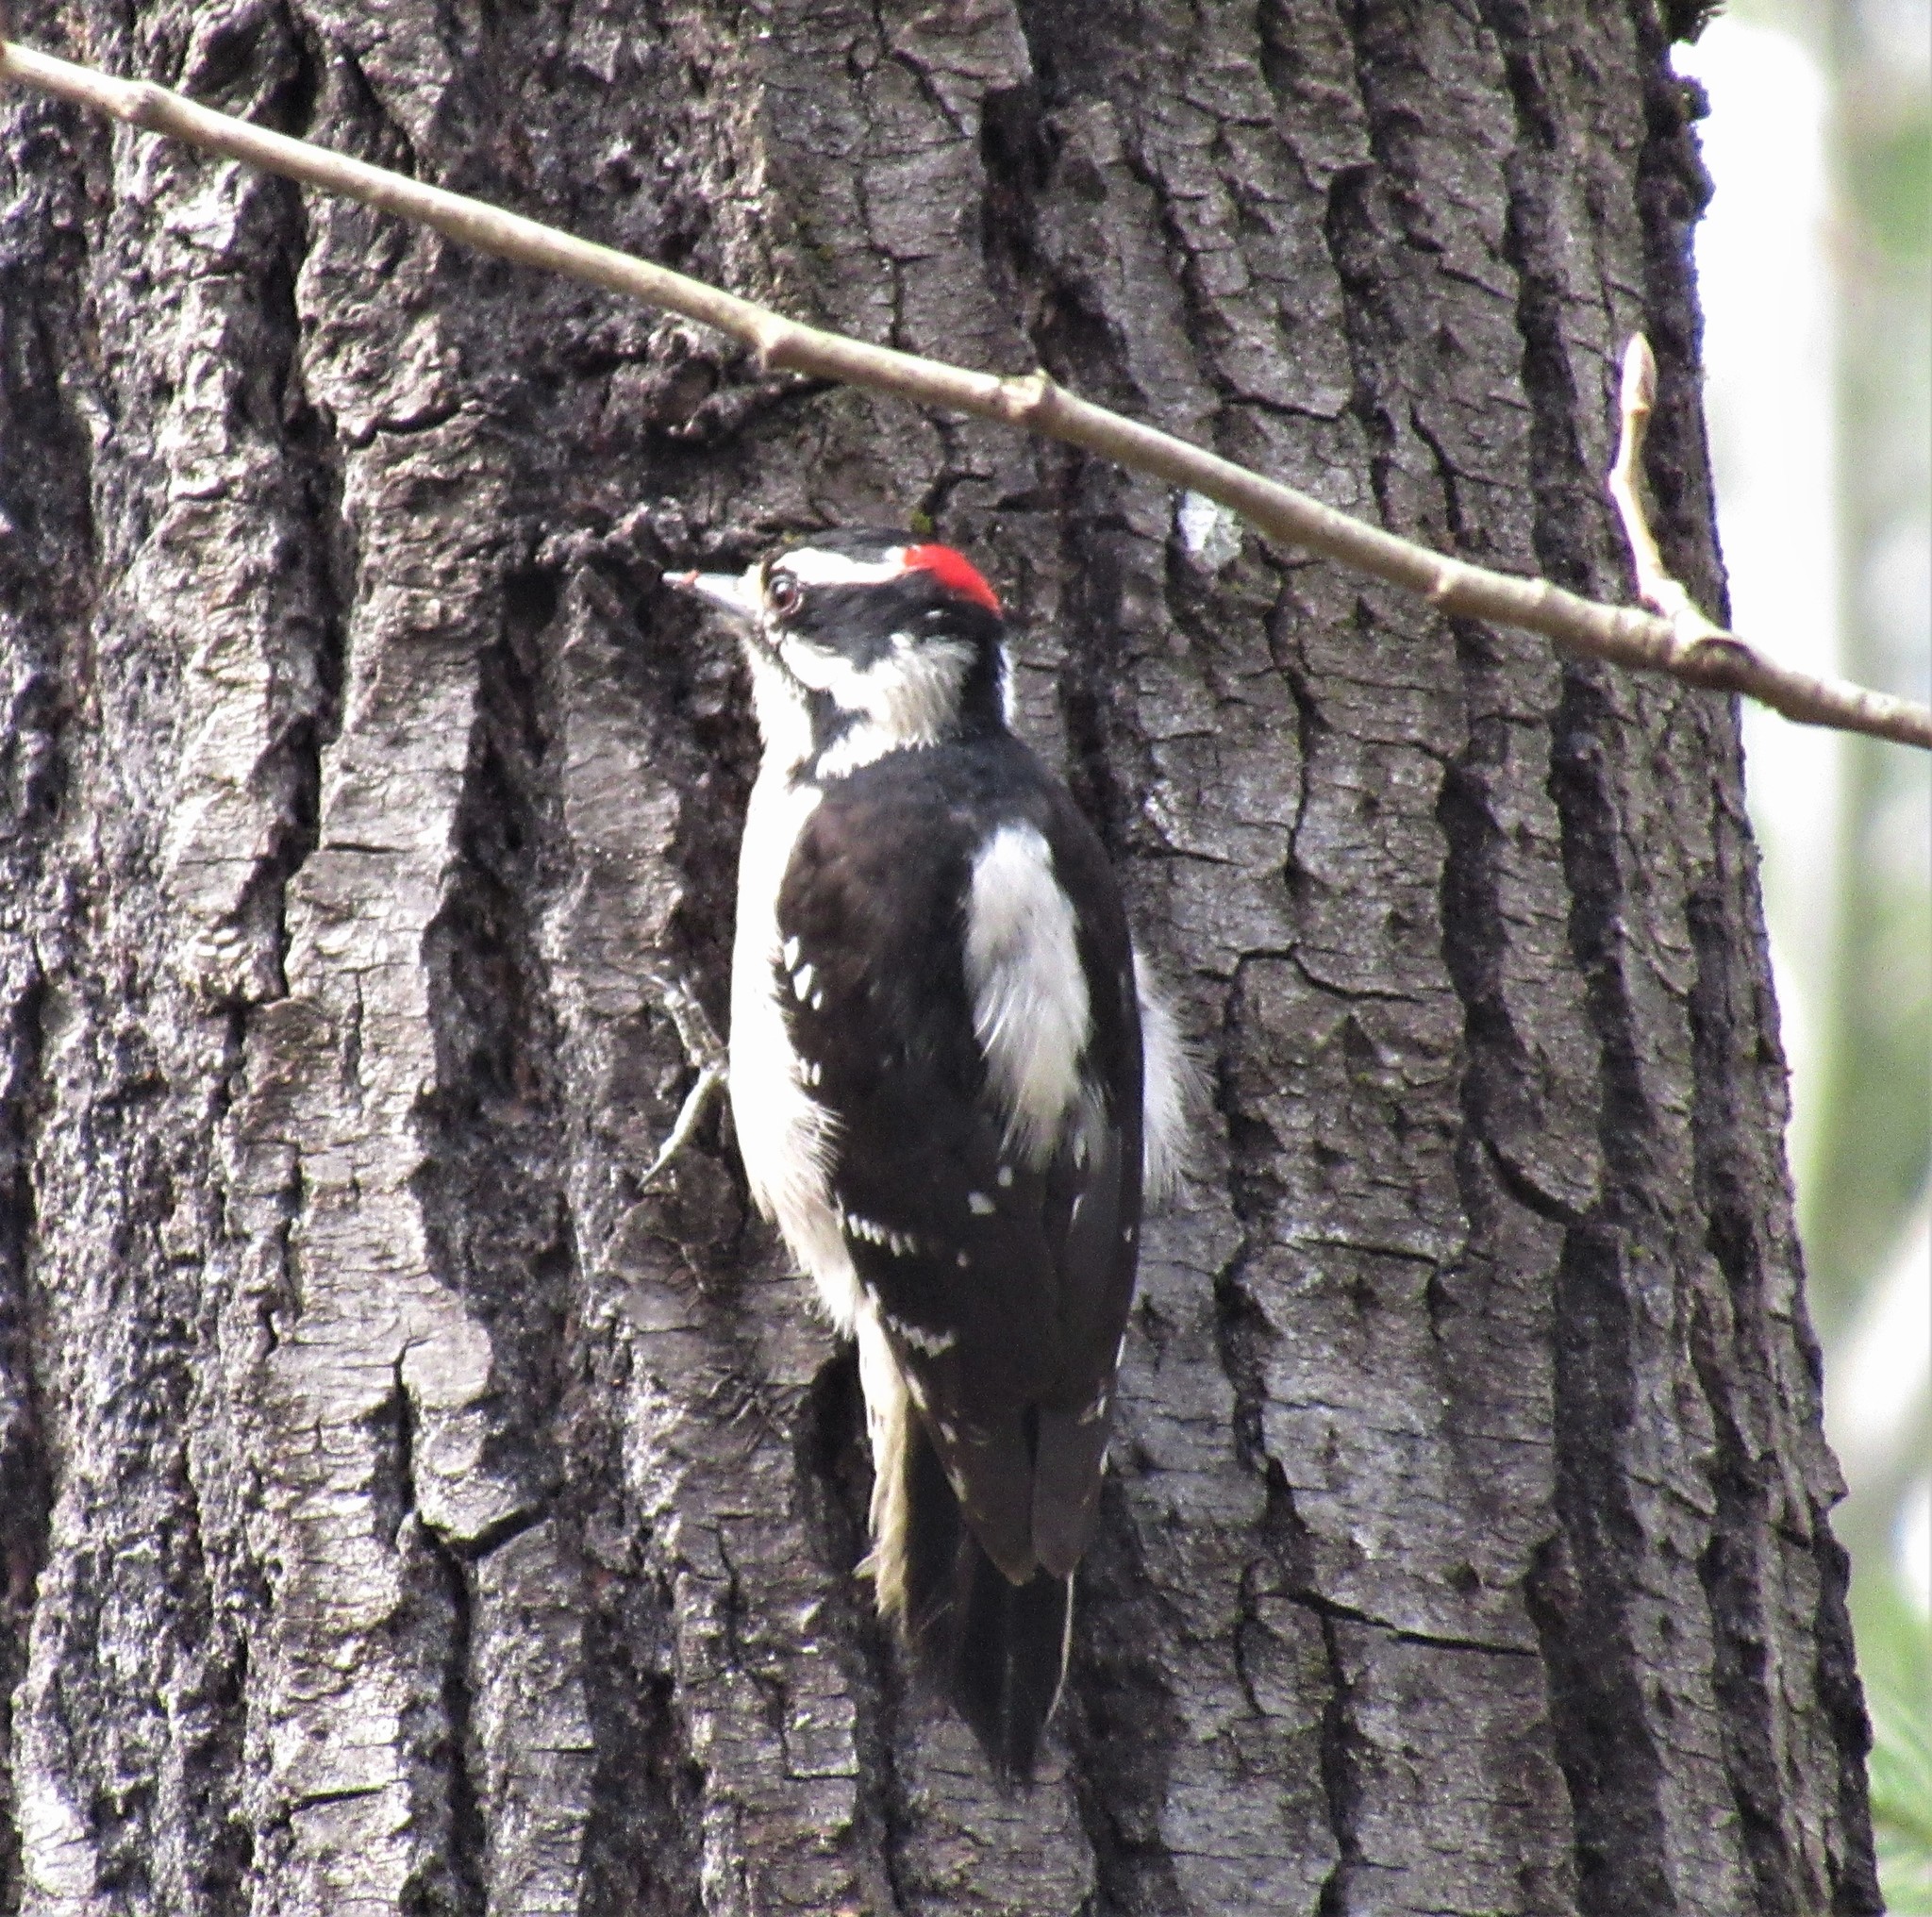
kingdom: Animalia
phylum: Chordata
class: Aves
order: Piciformes
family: Picidae
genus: Dryobates
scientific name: Dryobates pubescens
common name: Downy woodpecker
